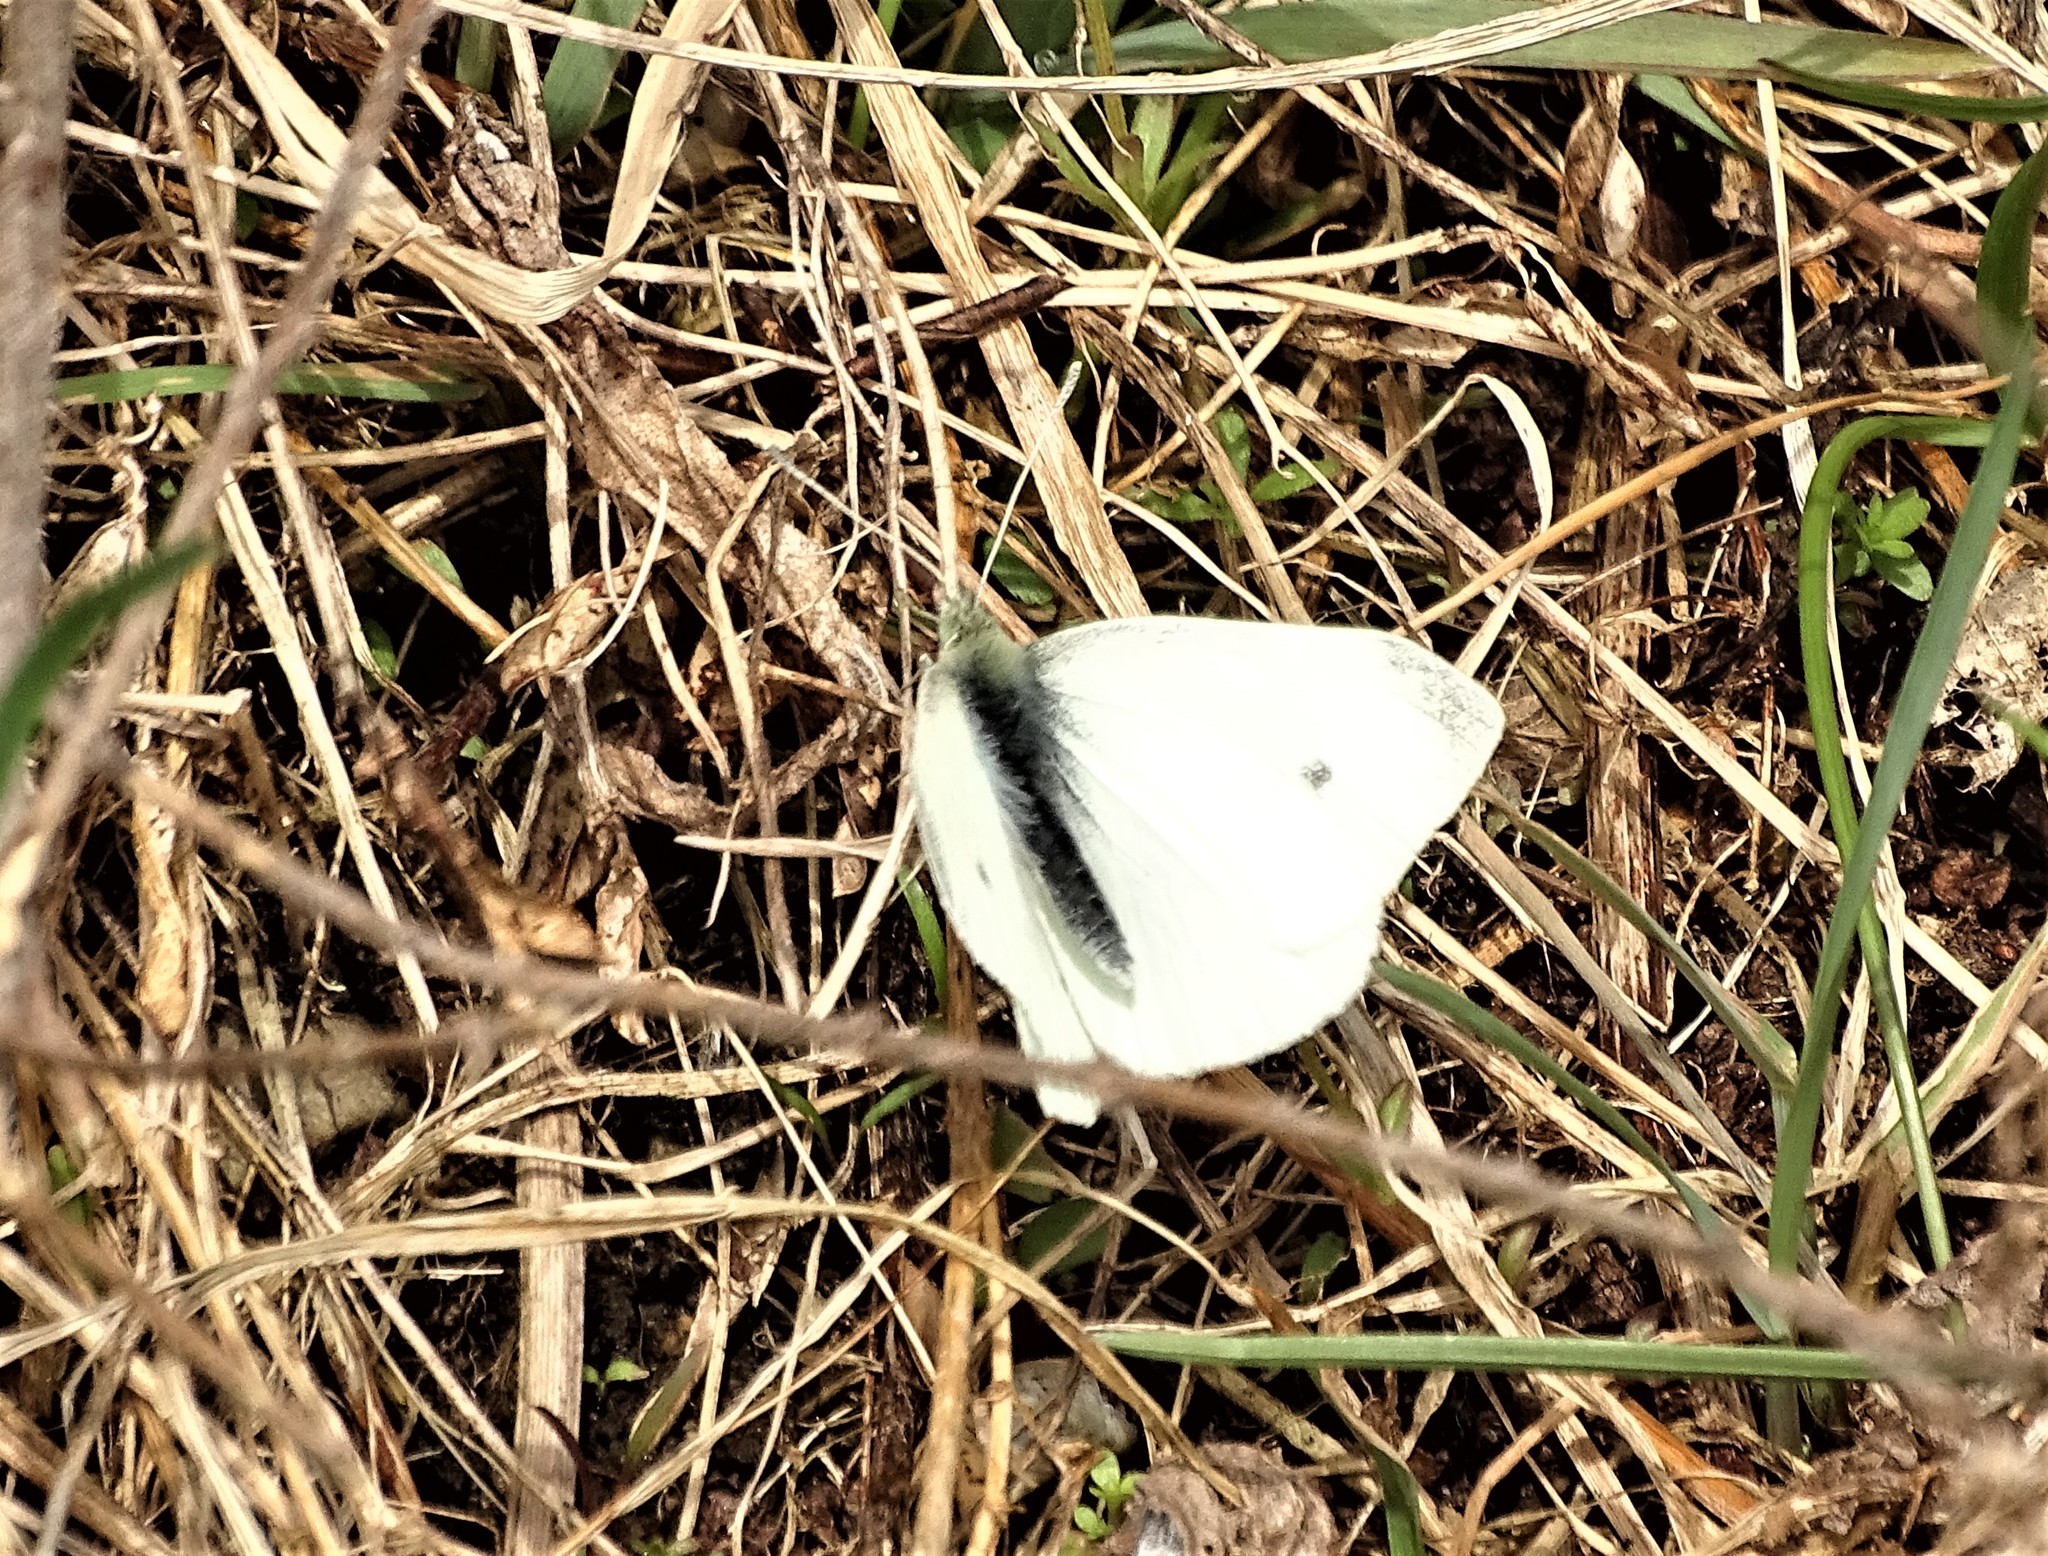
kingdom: Animalia
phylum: Arthropoda
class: Insecta
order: Lepidoptera
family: Pieridae
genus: Pieris
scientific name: Pieris rapae
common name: Small white
